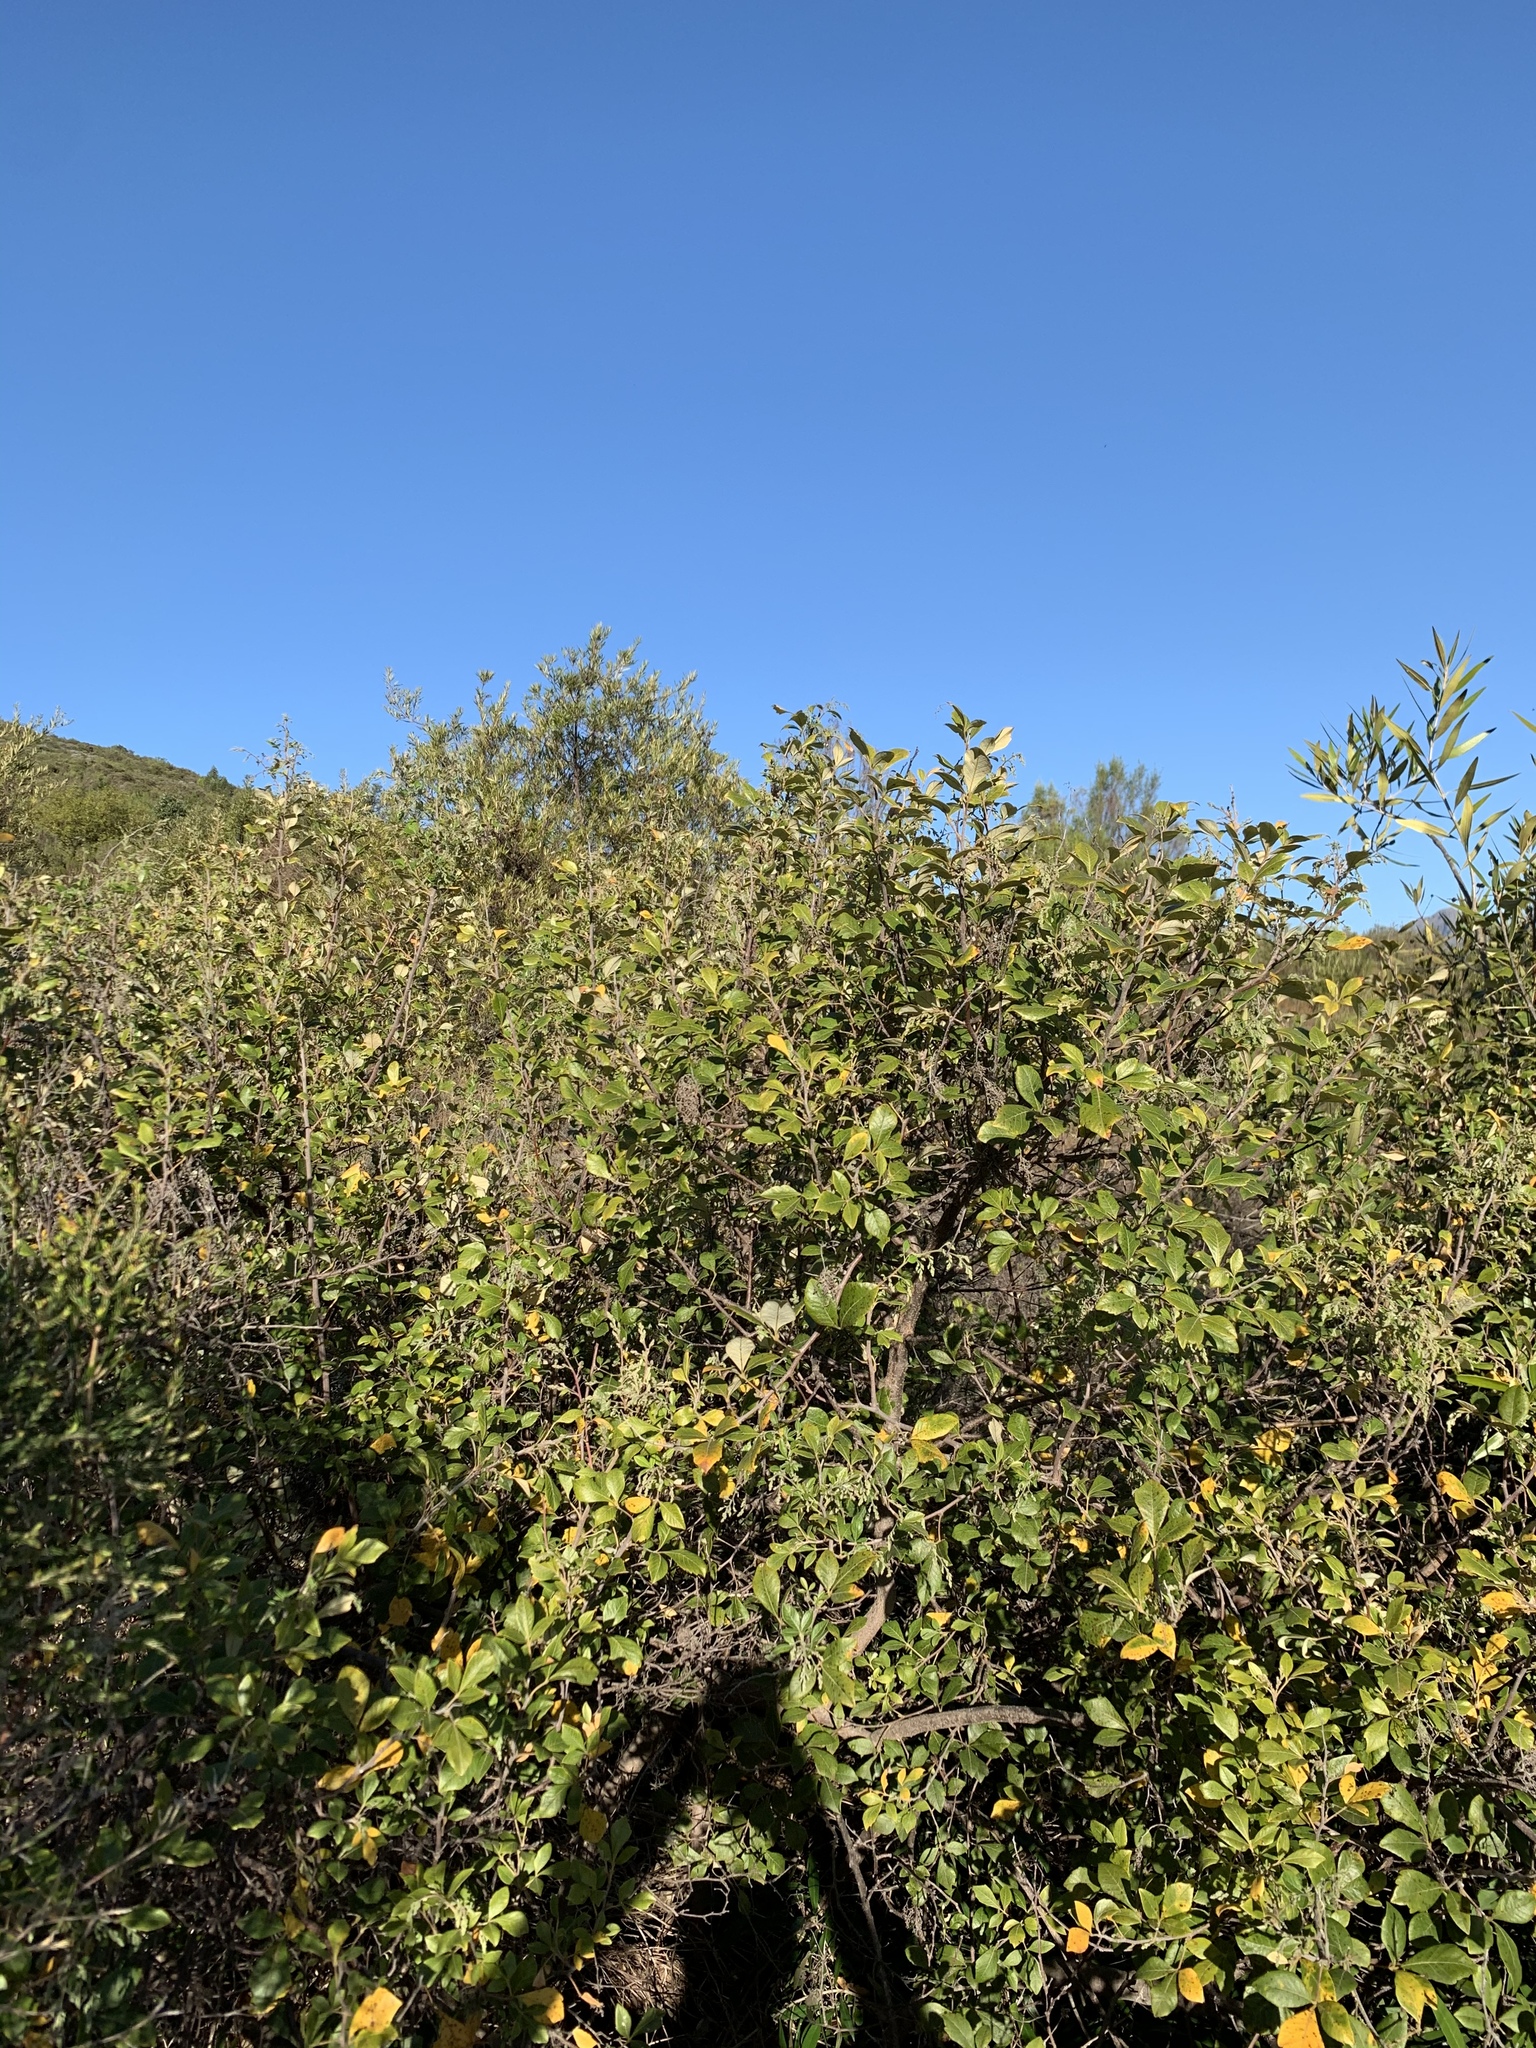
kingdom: Plantae
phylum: Tracheophyta
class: Magnoliopsida
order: Sapindales
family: Anacardiaceae
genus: Searsia
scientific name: Searsia tomentosa
